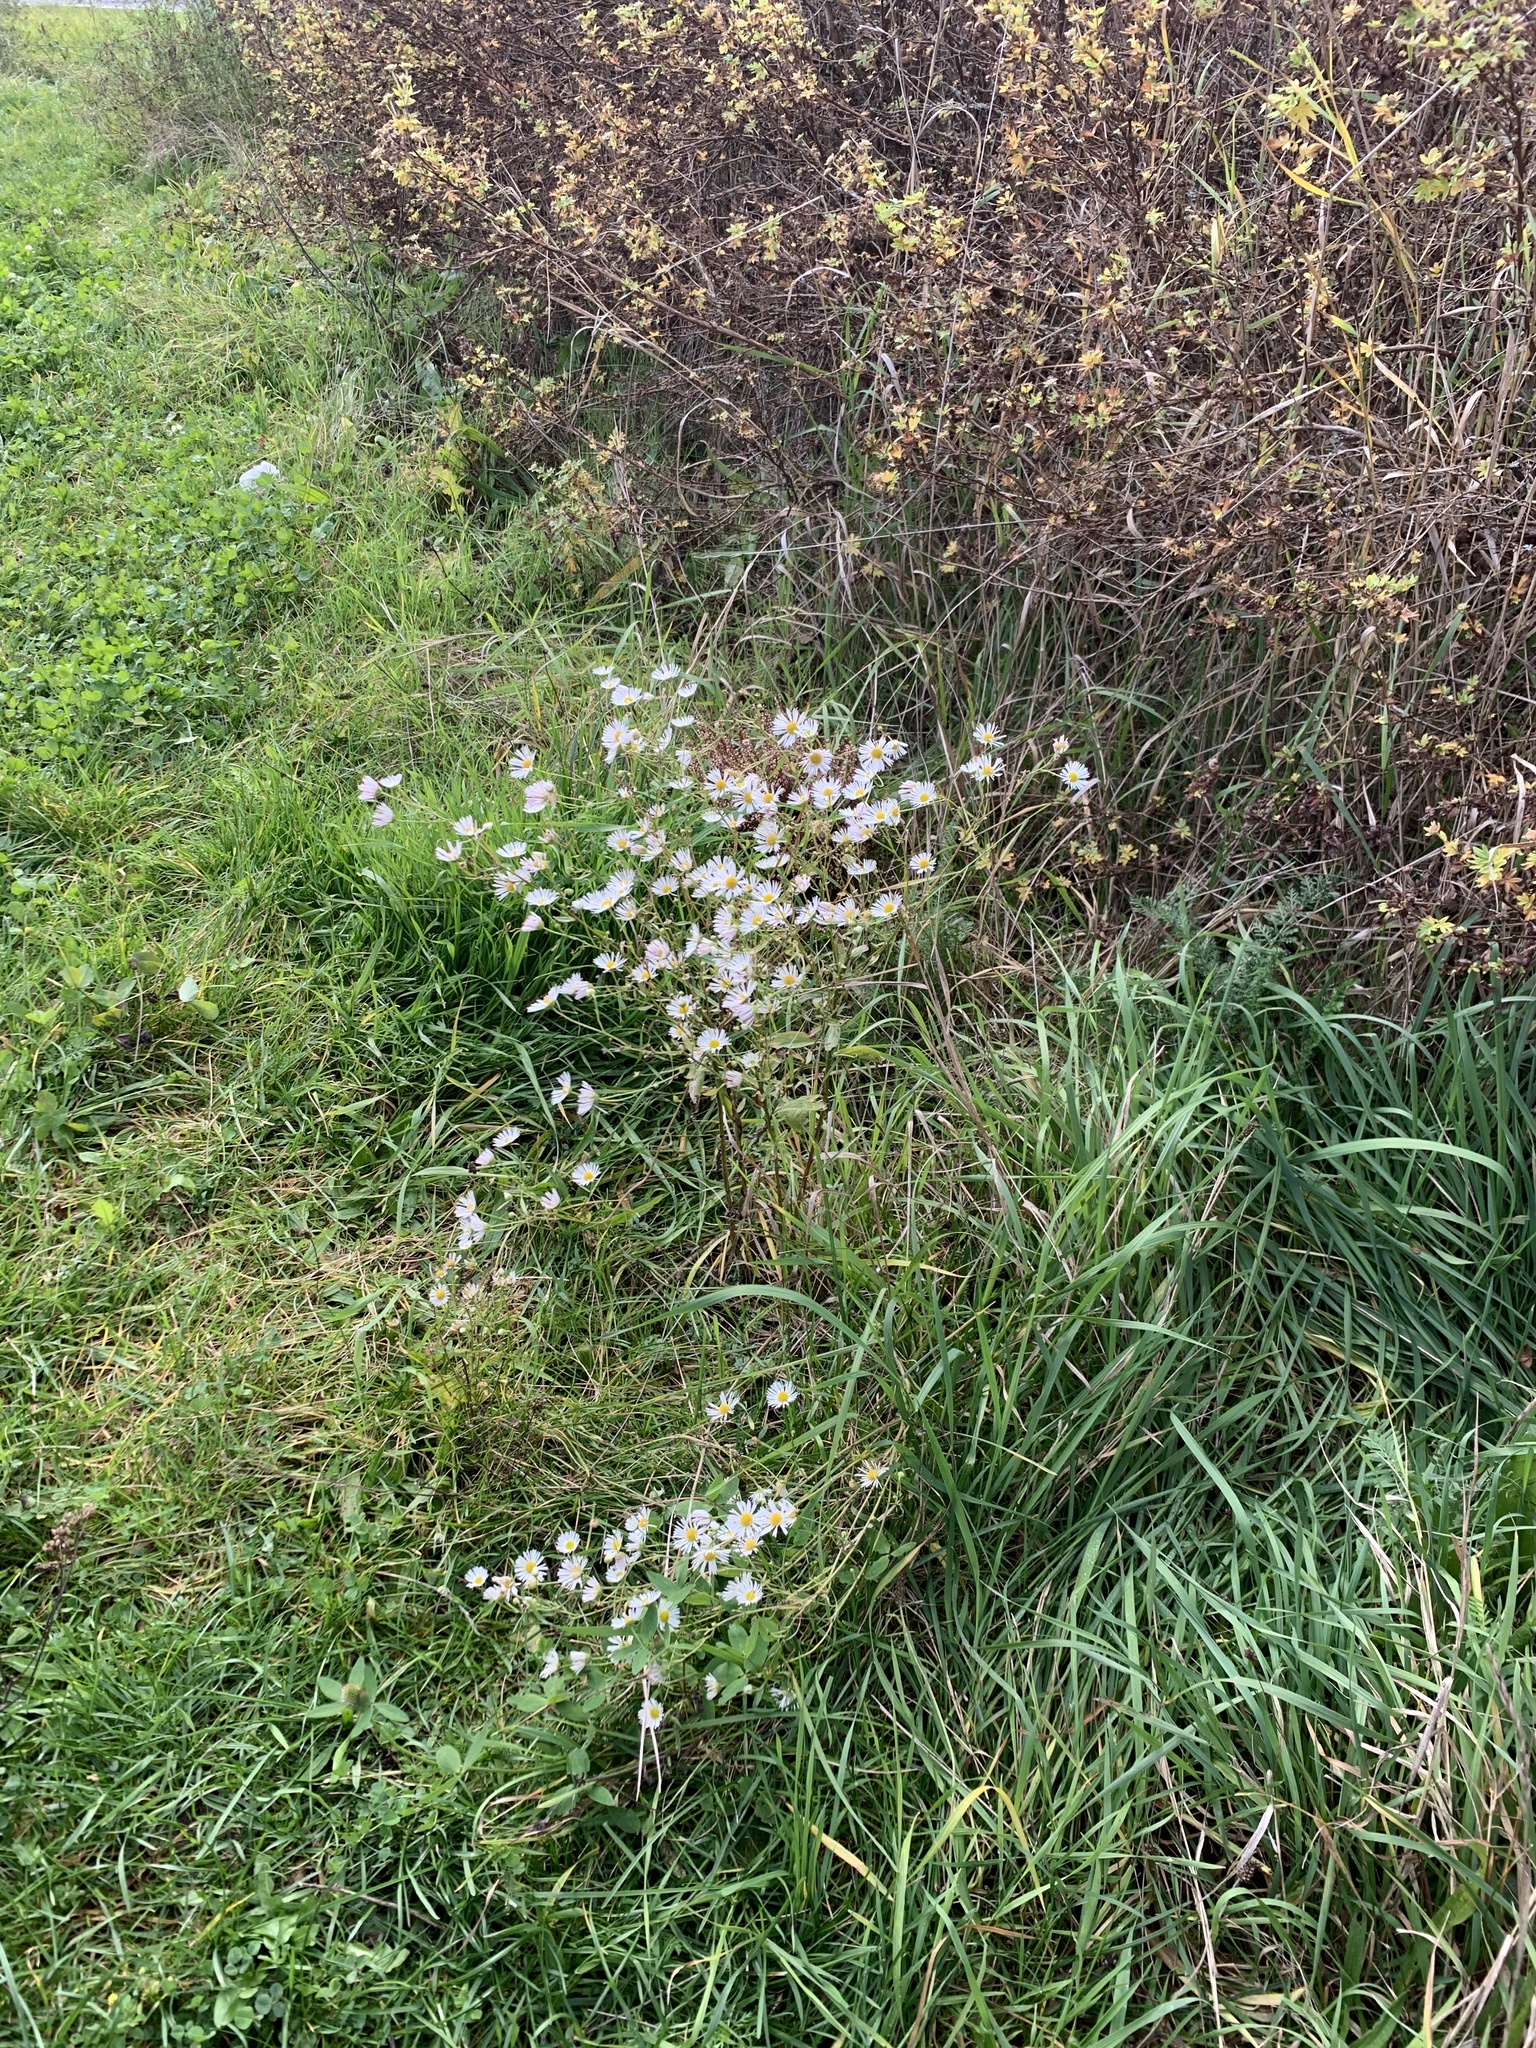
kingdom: Plantae
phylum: Tracheophyta
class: Magnoliopsida
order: Asterales
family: Asteraceae
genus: Erigeron
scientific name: Erigeron annuus
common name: Tall fleabane
